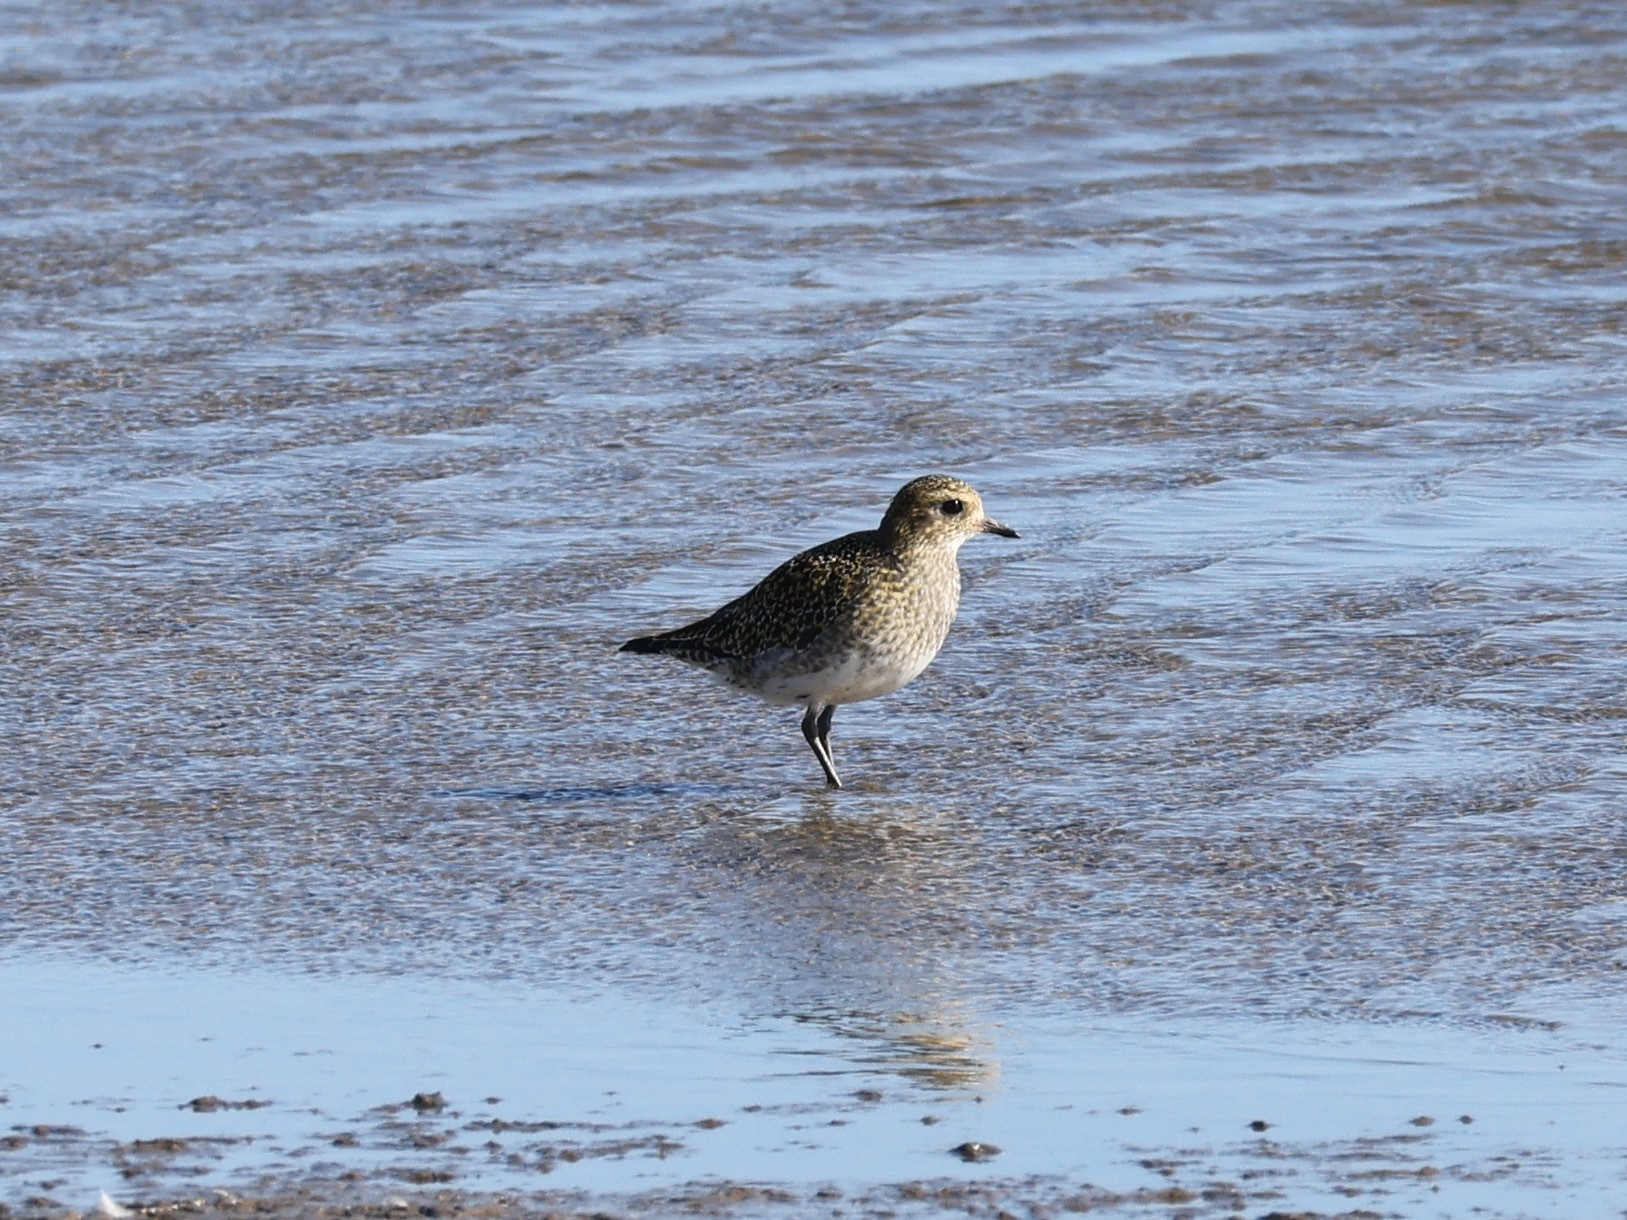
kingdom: Animalia
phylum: Chordata
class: Aves
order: Charadriiformes
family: Charadriidae
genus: Pluvialis
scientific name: Pluvialis apricaria
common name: European golden plover
